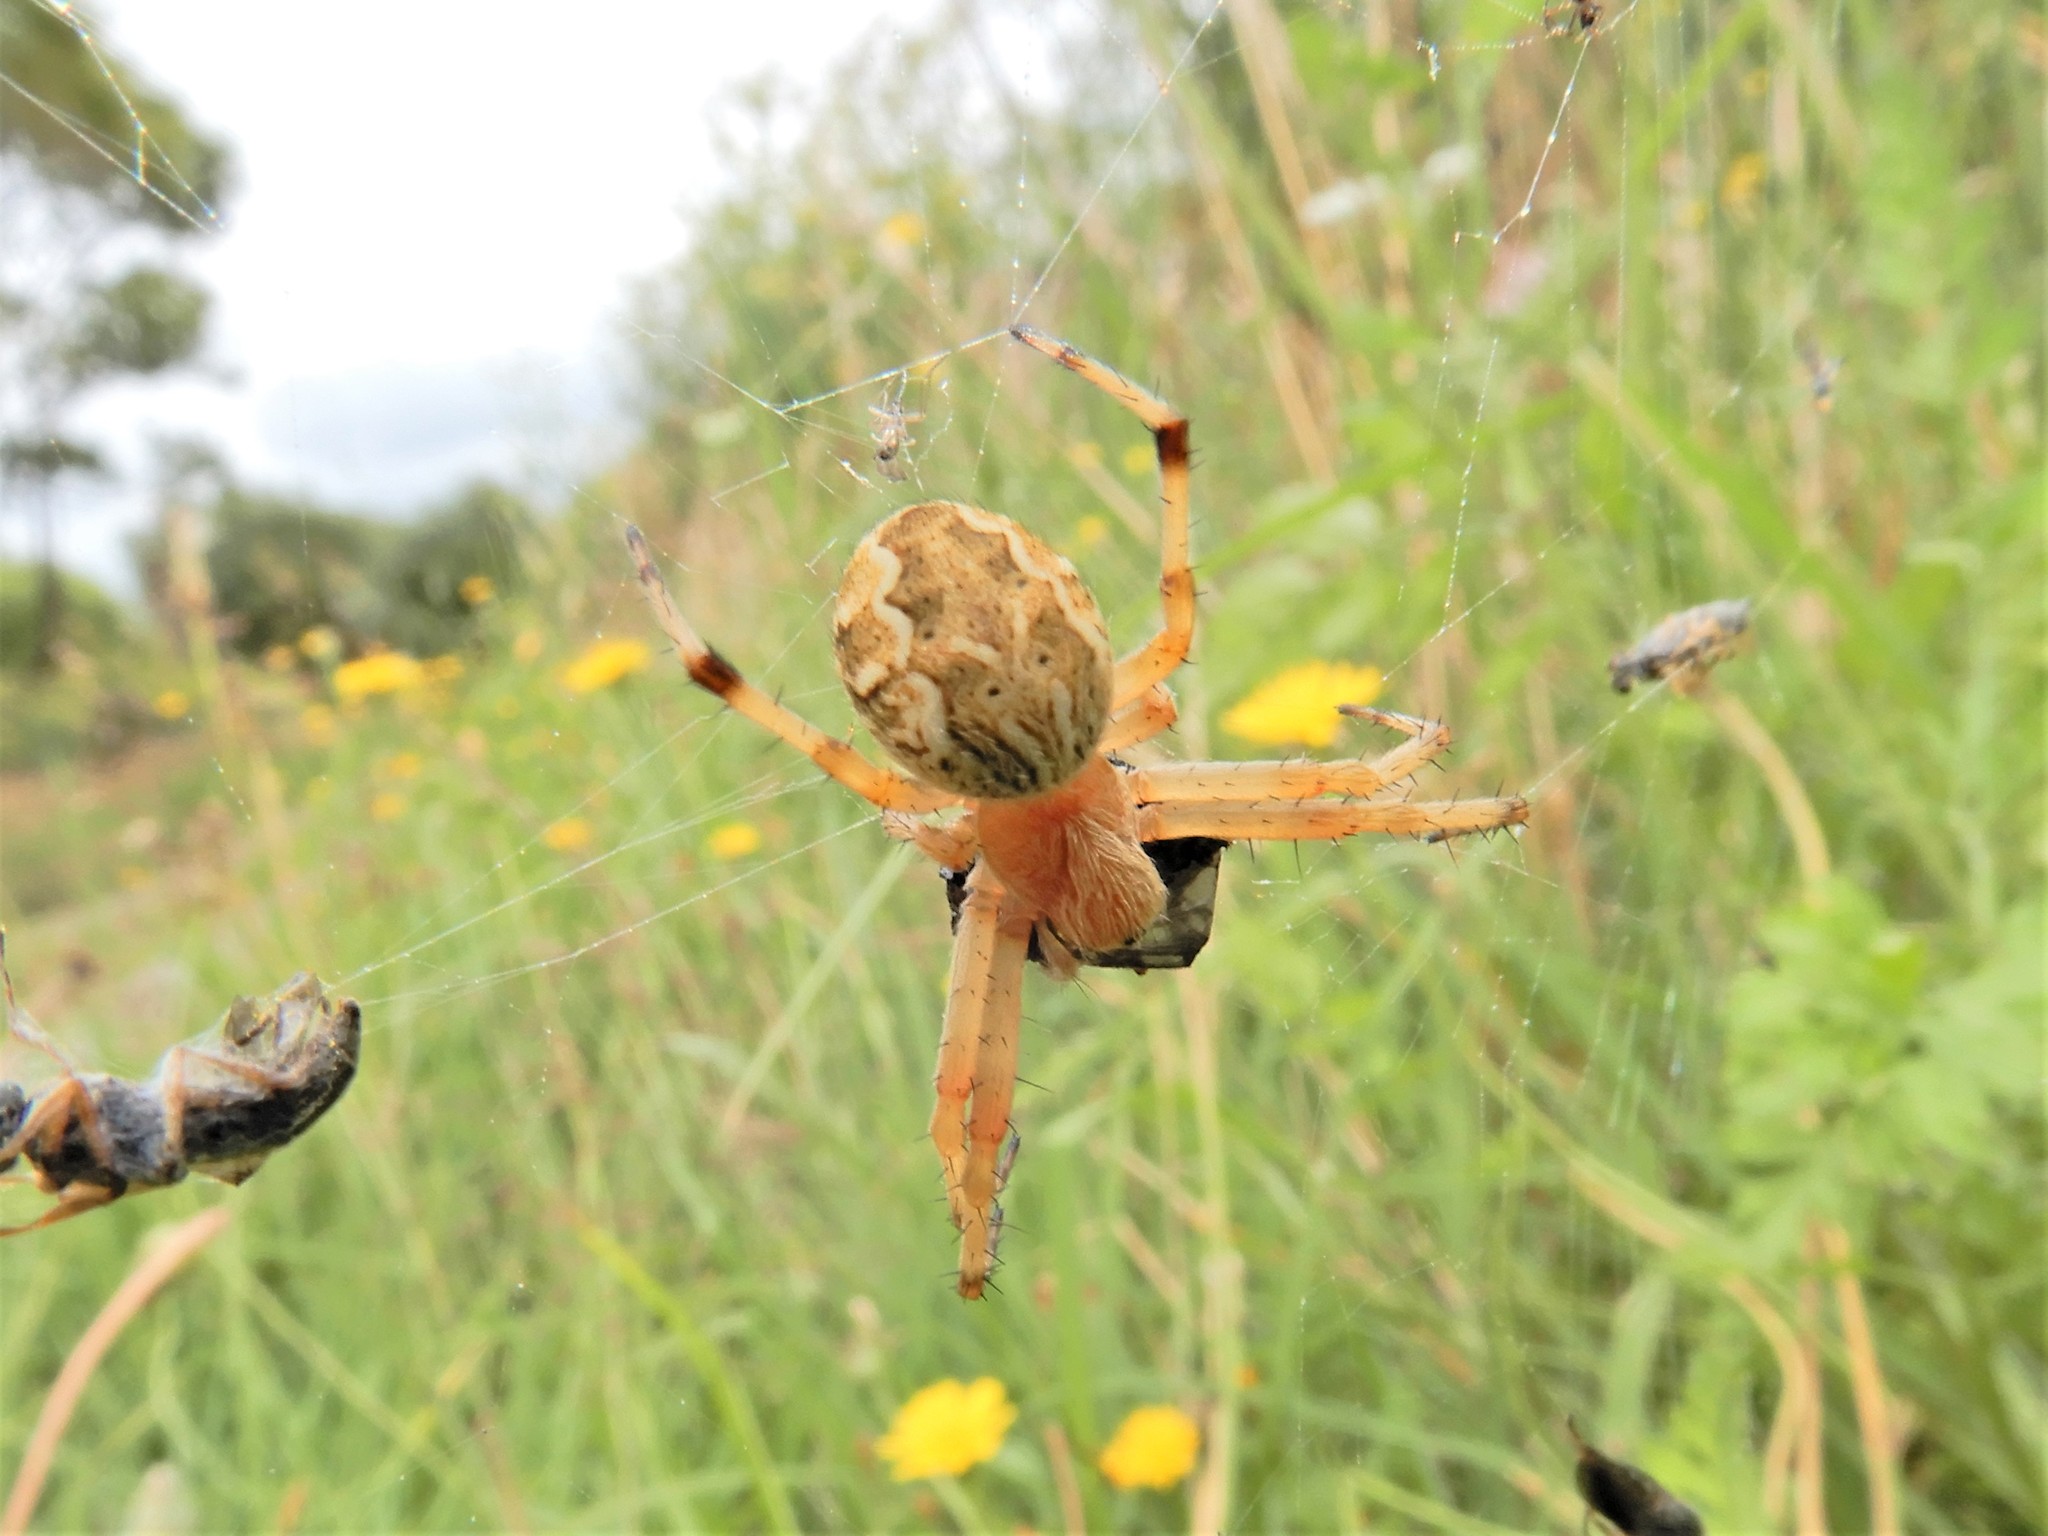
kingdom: Animalia
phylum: Arthropoda
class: Arachnida
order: Araneae
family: Araneidae
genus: Salsa
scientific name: Salsa fuliginata
